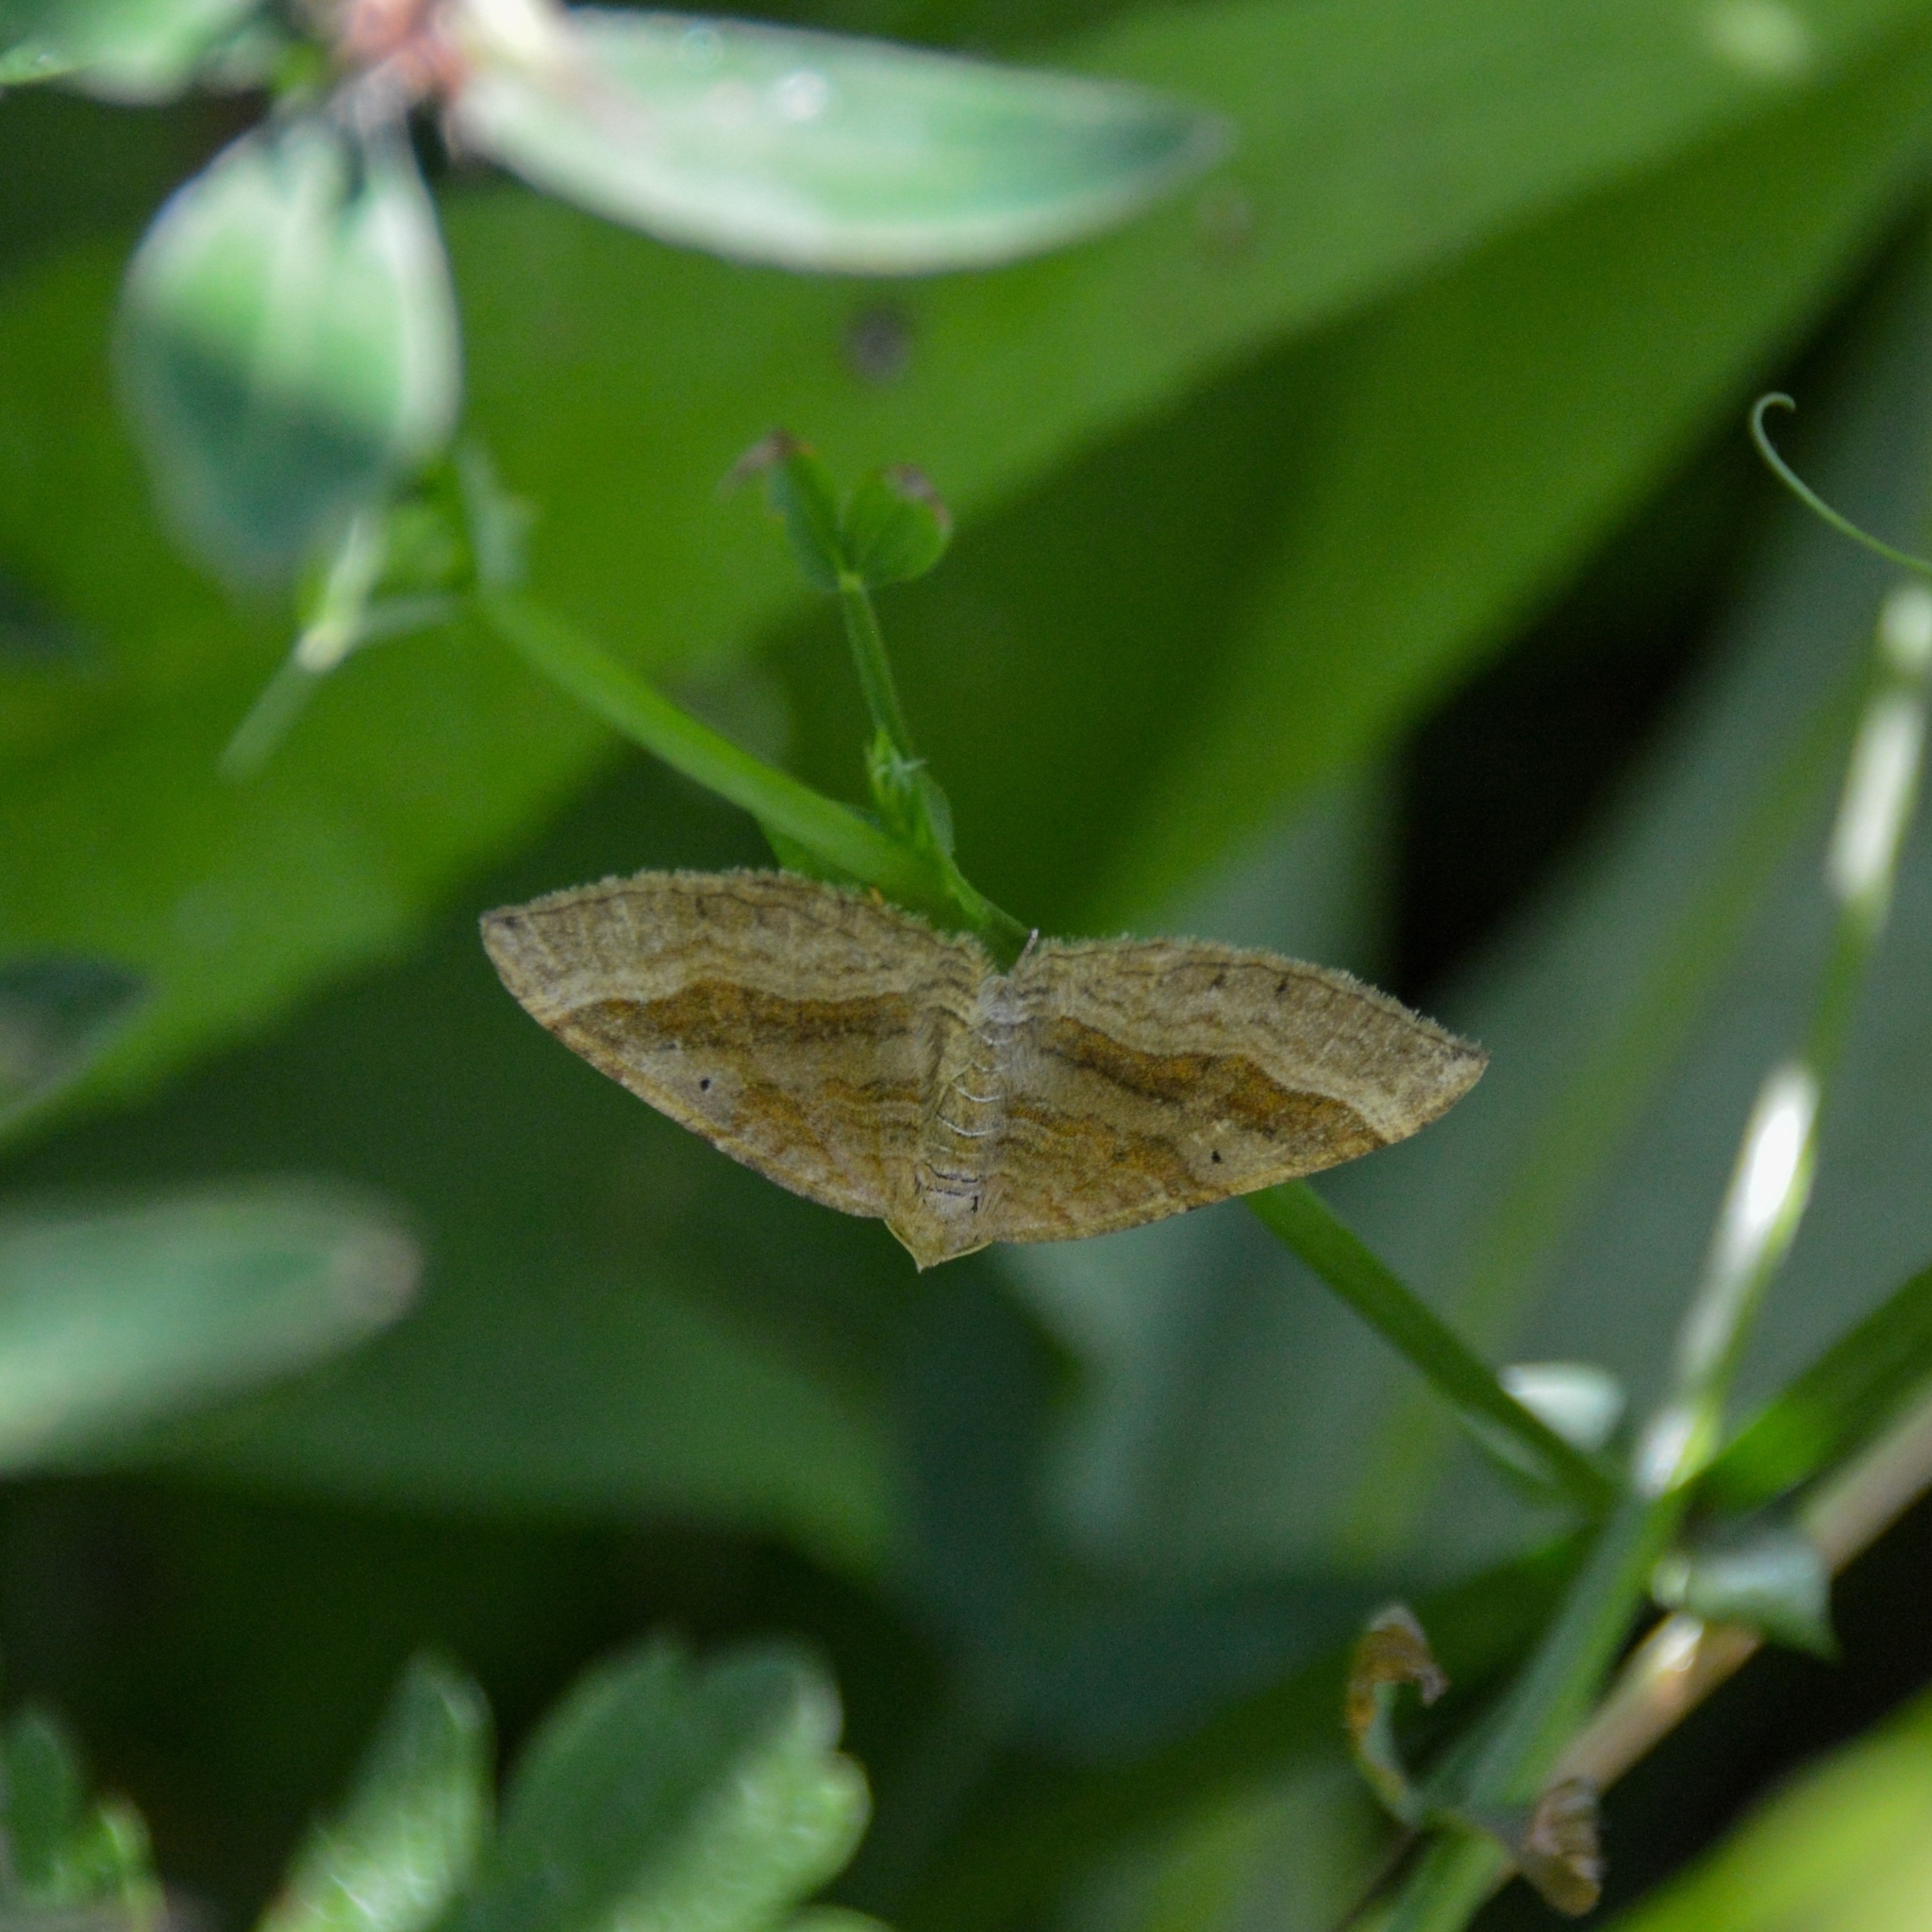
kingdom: Animalia
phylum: Arthropoda
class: Insecta
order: Lepidoptera
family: Geometridae
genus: Scotopteryx
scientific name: Scotopteryx chenopodiata
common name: Shaded broad-bar
